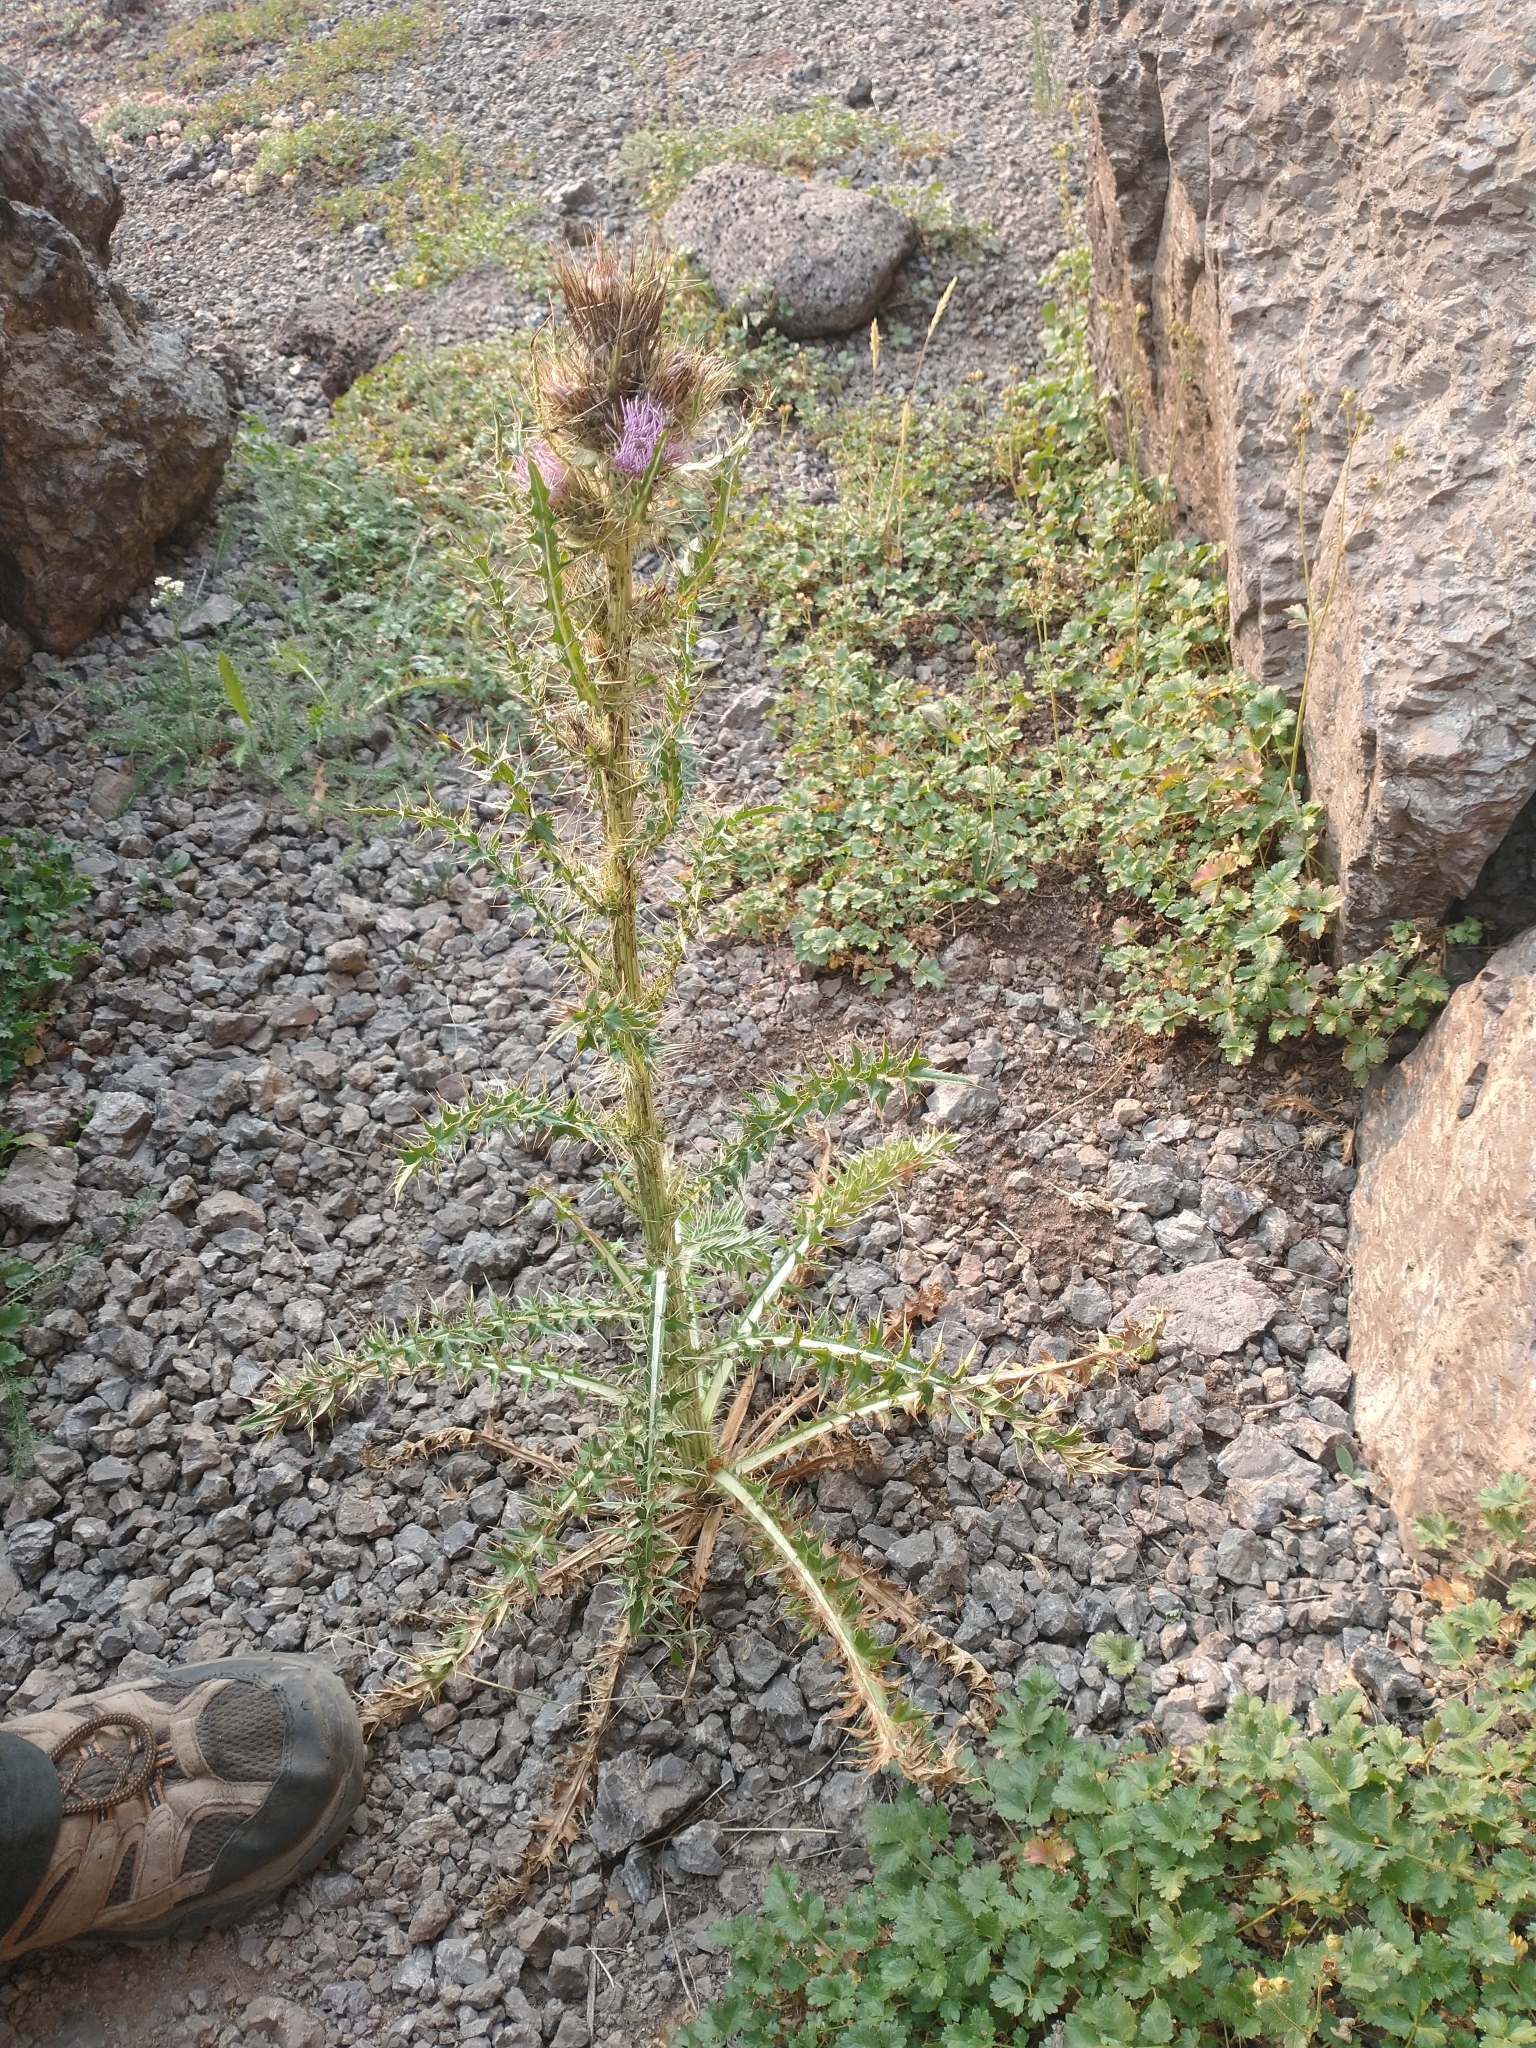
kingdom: Plantae
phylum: Tracheophyta
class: Magnoliopsida
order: Asterales
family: Asteraceae
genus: Cirsium
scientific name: Cirsium peckii
